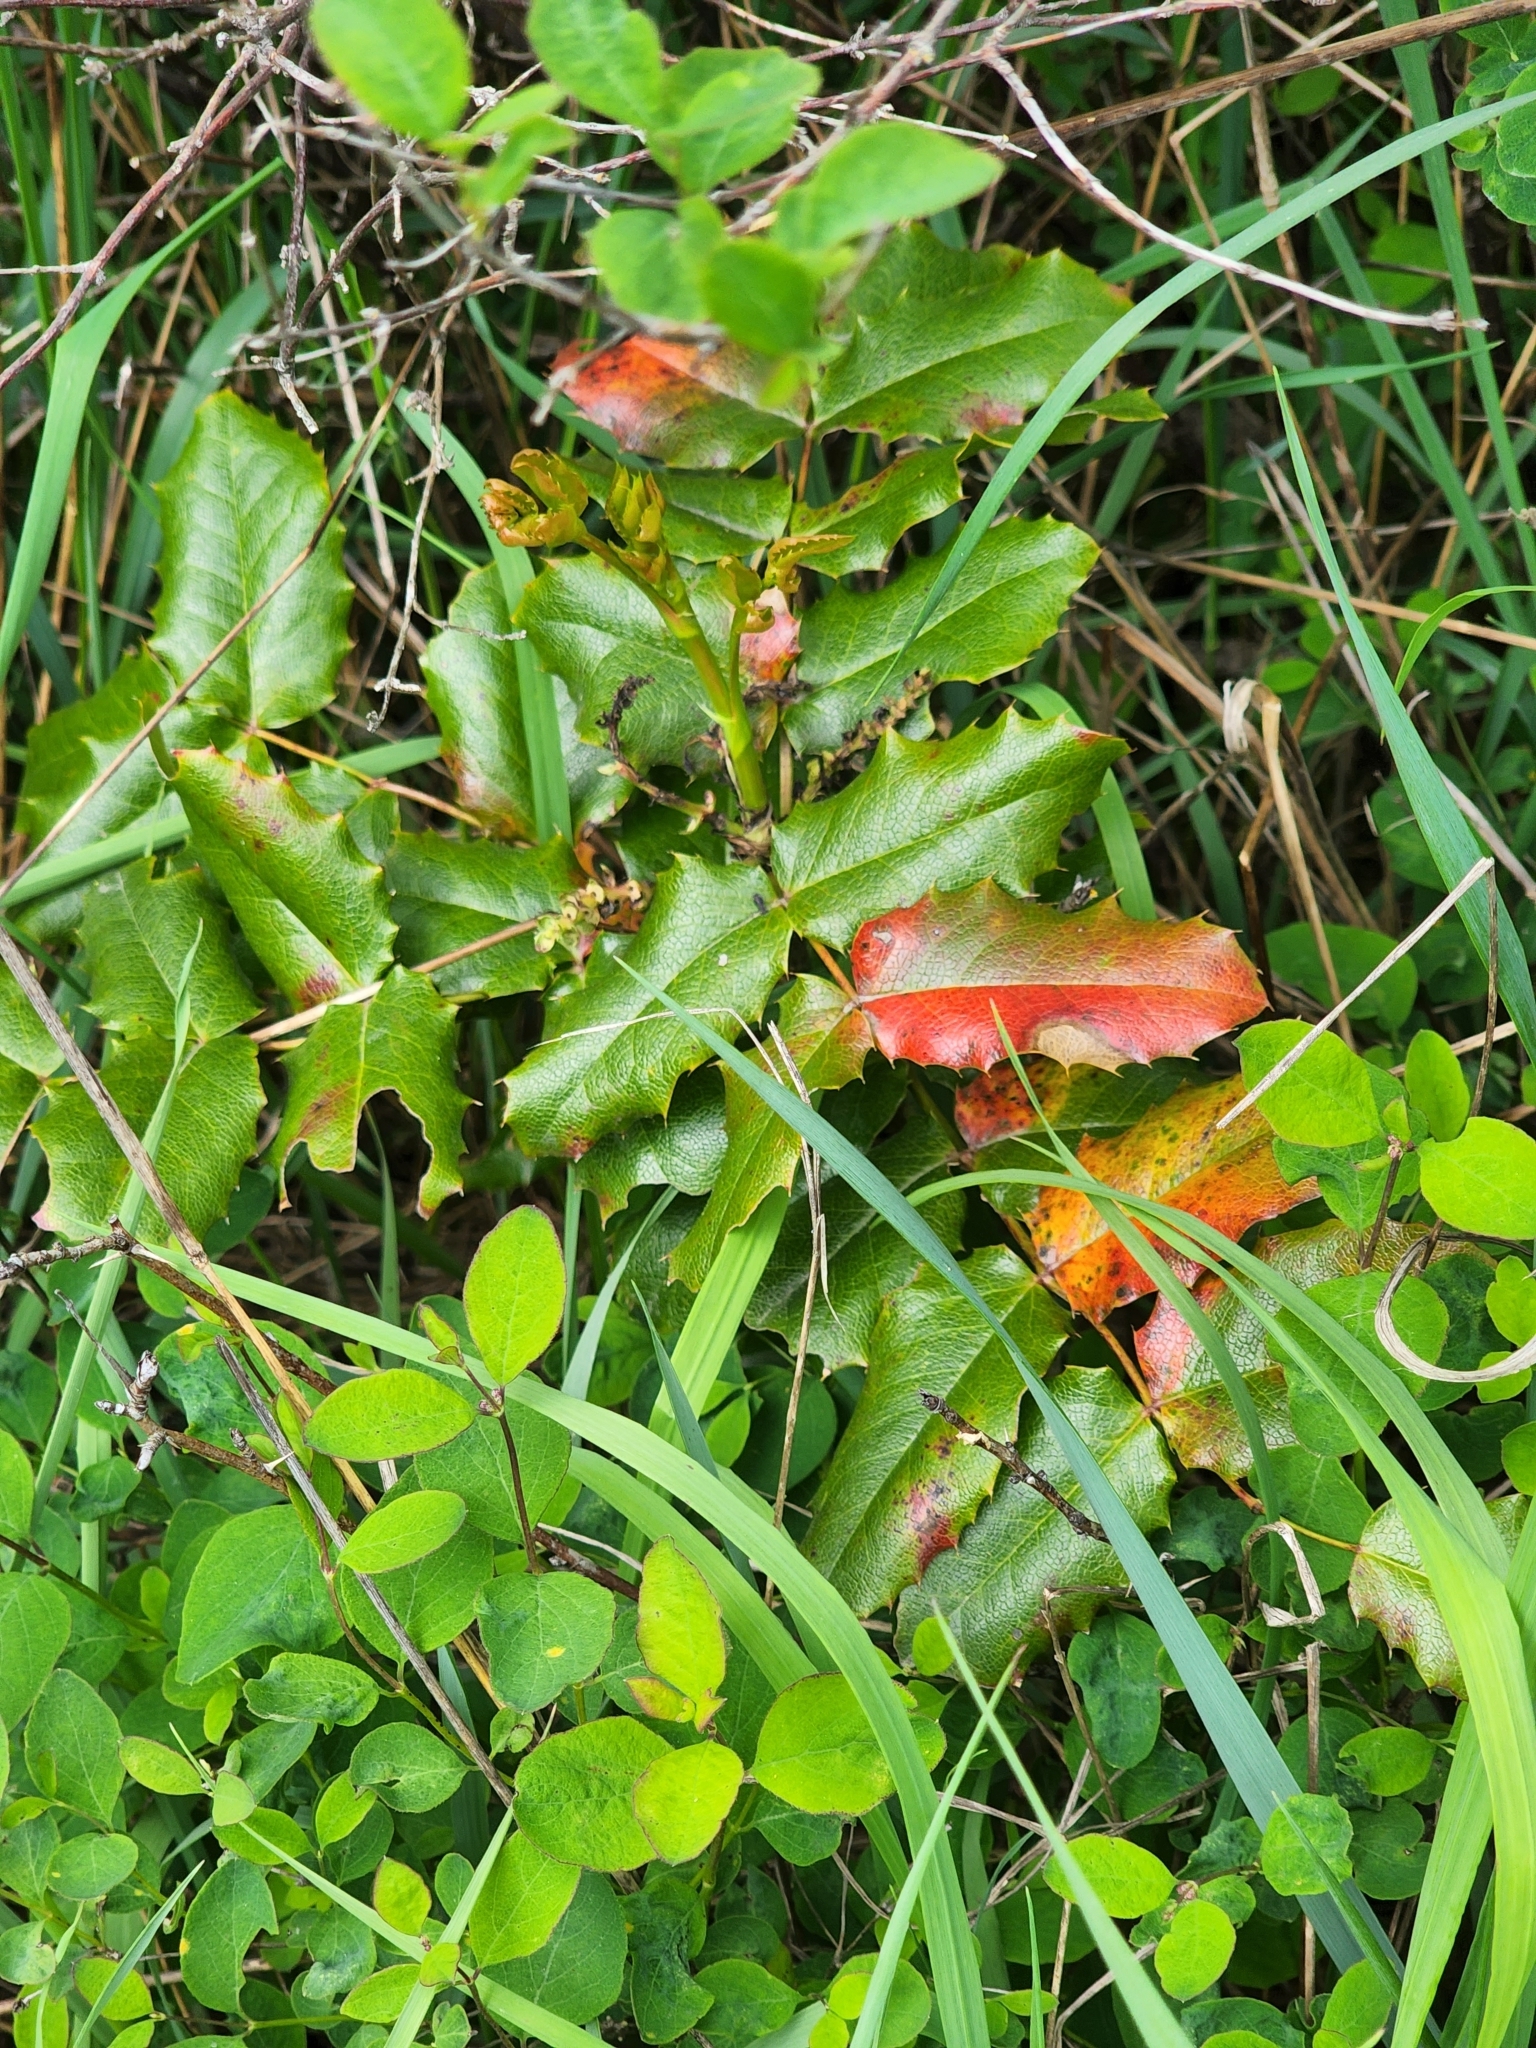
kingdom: Plantae
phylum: Tracheophyta
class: Magnoliopsida
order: Ranunculales
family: Berberidaceae
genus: Mahonia
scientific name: Mahonia aquifolium
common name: Oregon-grape
